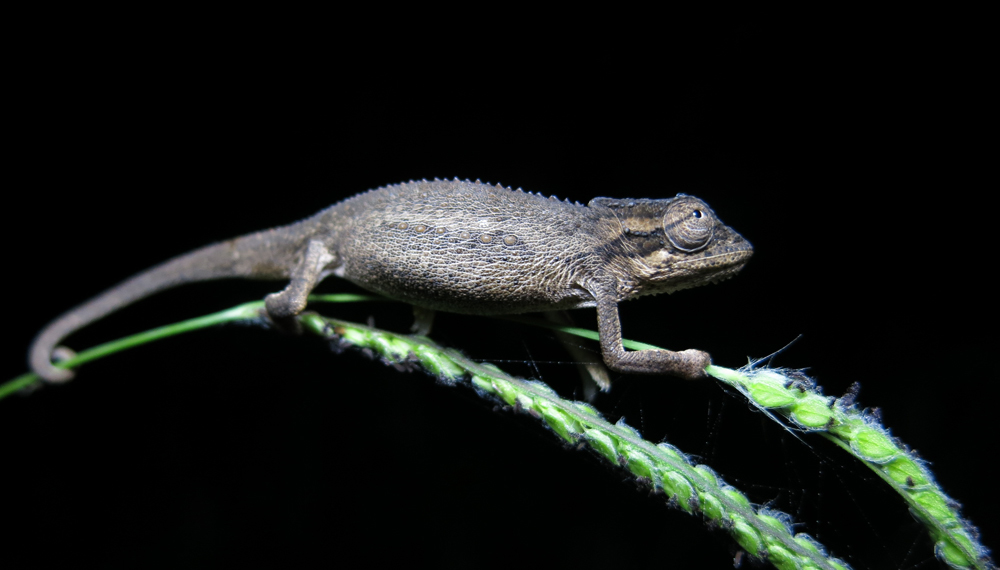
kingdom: Animalia
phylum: Chordata
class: Squamata
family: Chamaeleonidae
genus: Bradypodion
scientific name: Bradypodion melanocephalum
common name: Black-headed dwarf chameleon
